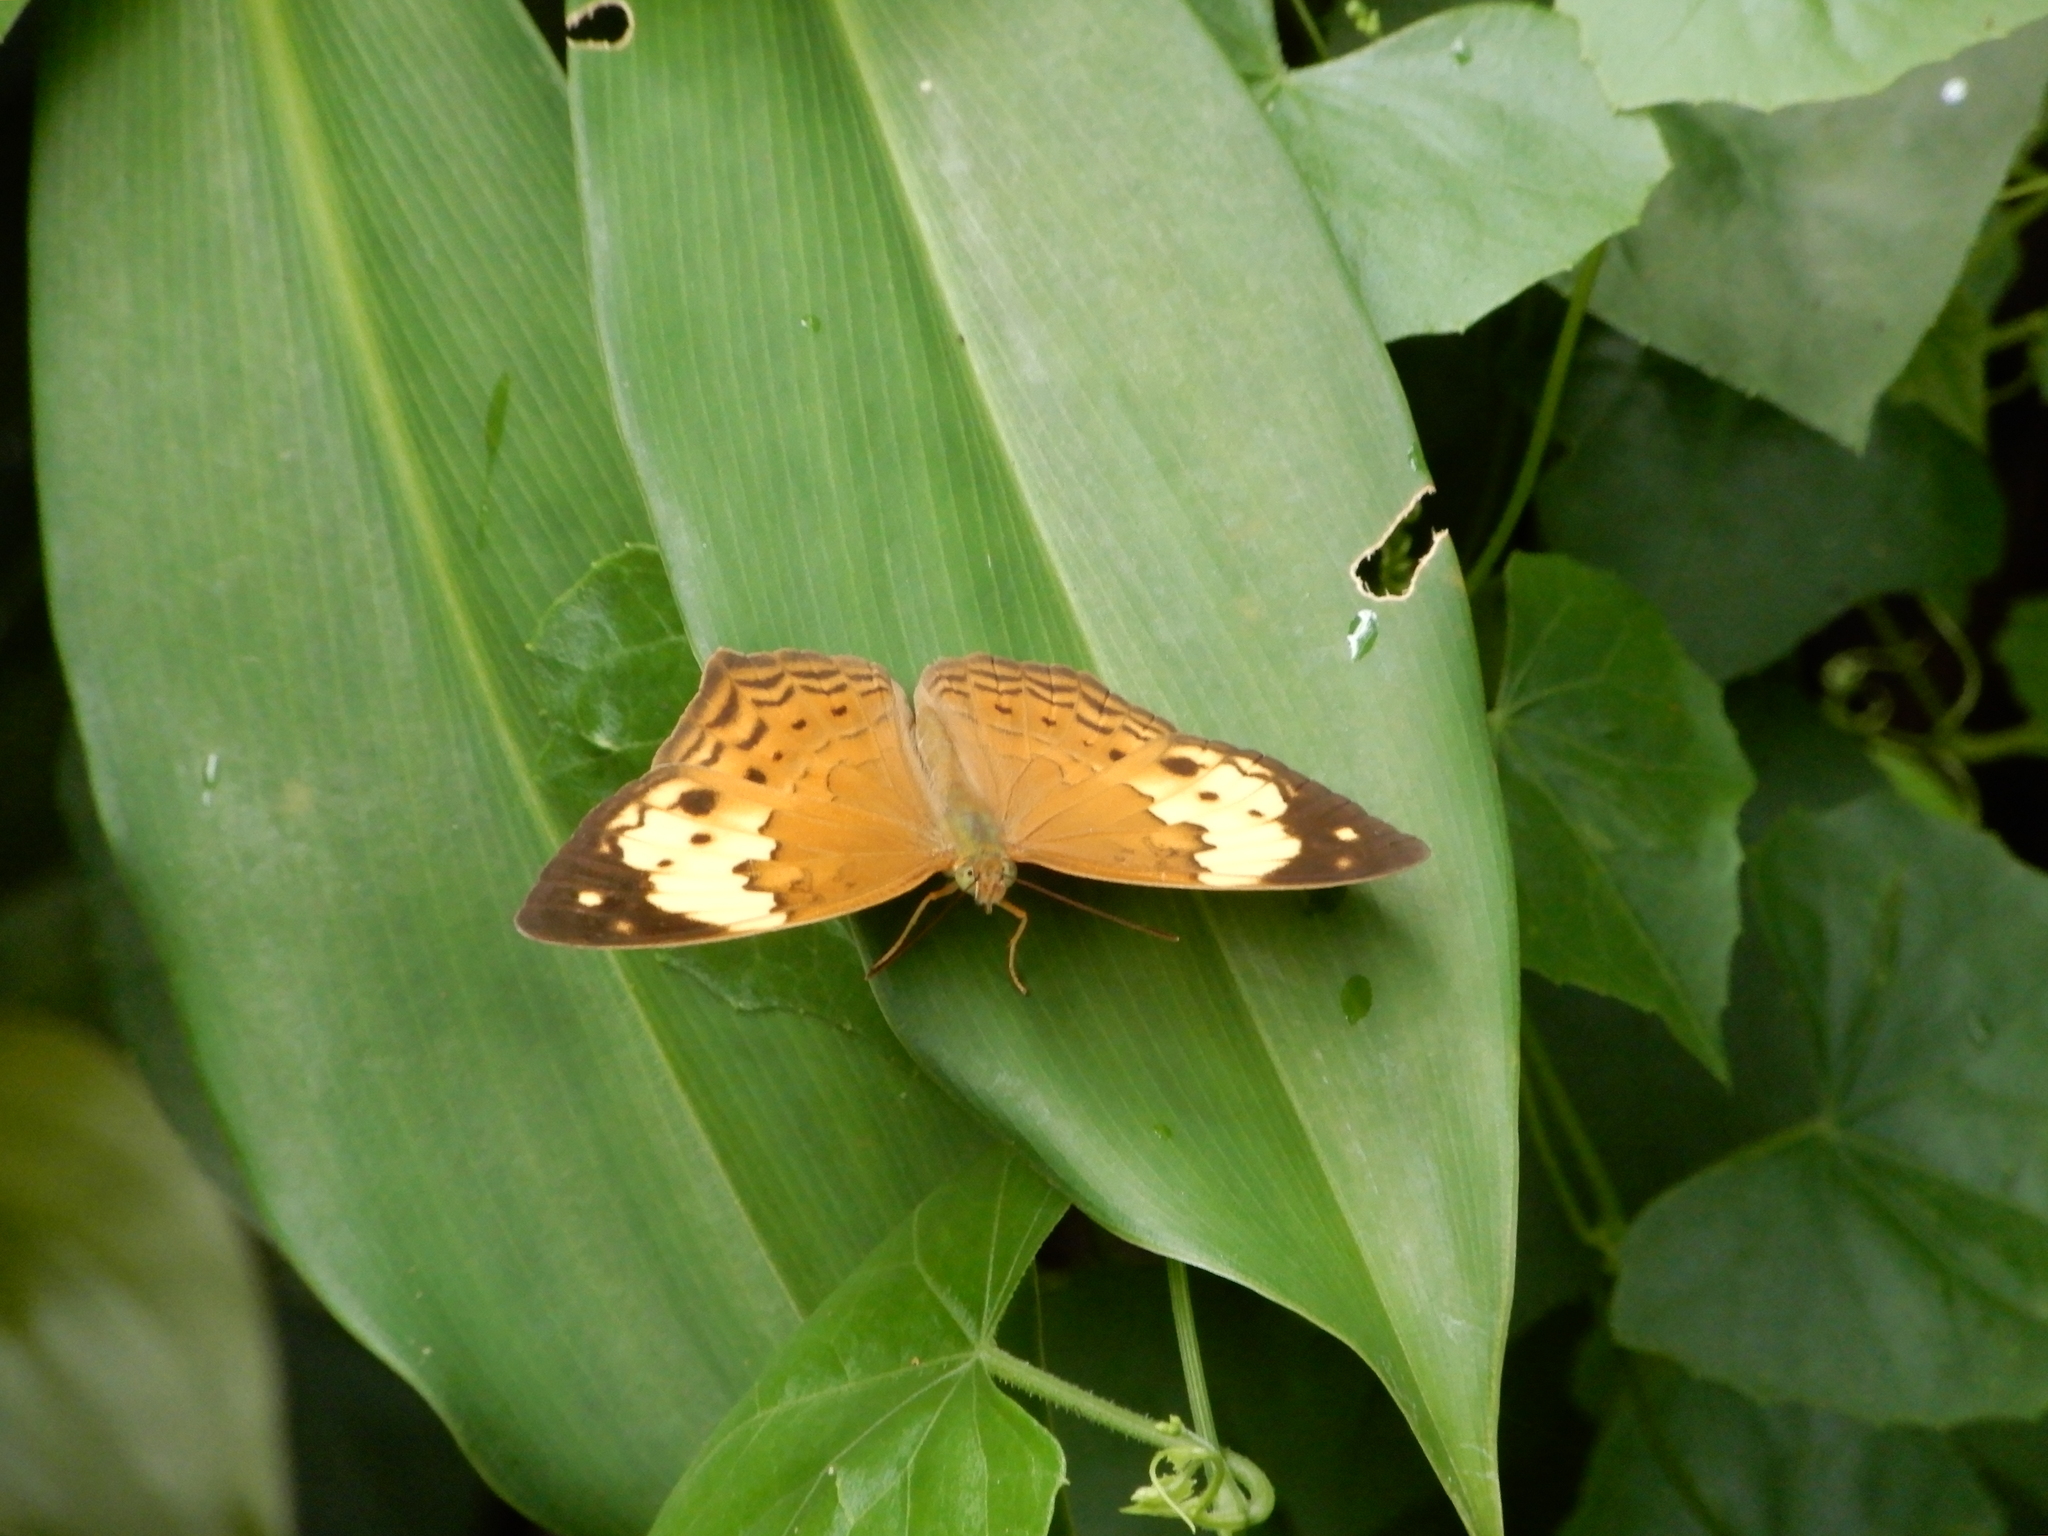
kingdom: Animalia
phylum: Arthropoda
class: Insecta
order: Lepidoptera
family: Nymphalidae
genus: Cupha
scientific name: Cupha erymanthis
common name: Rustic
